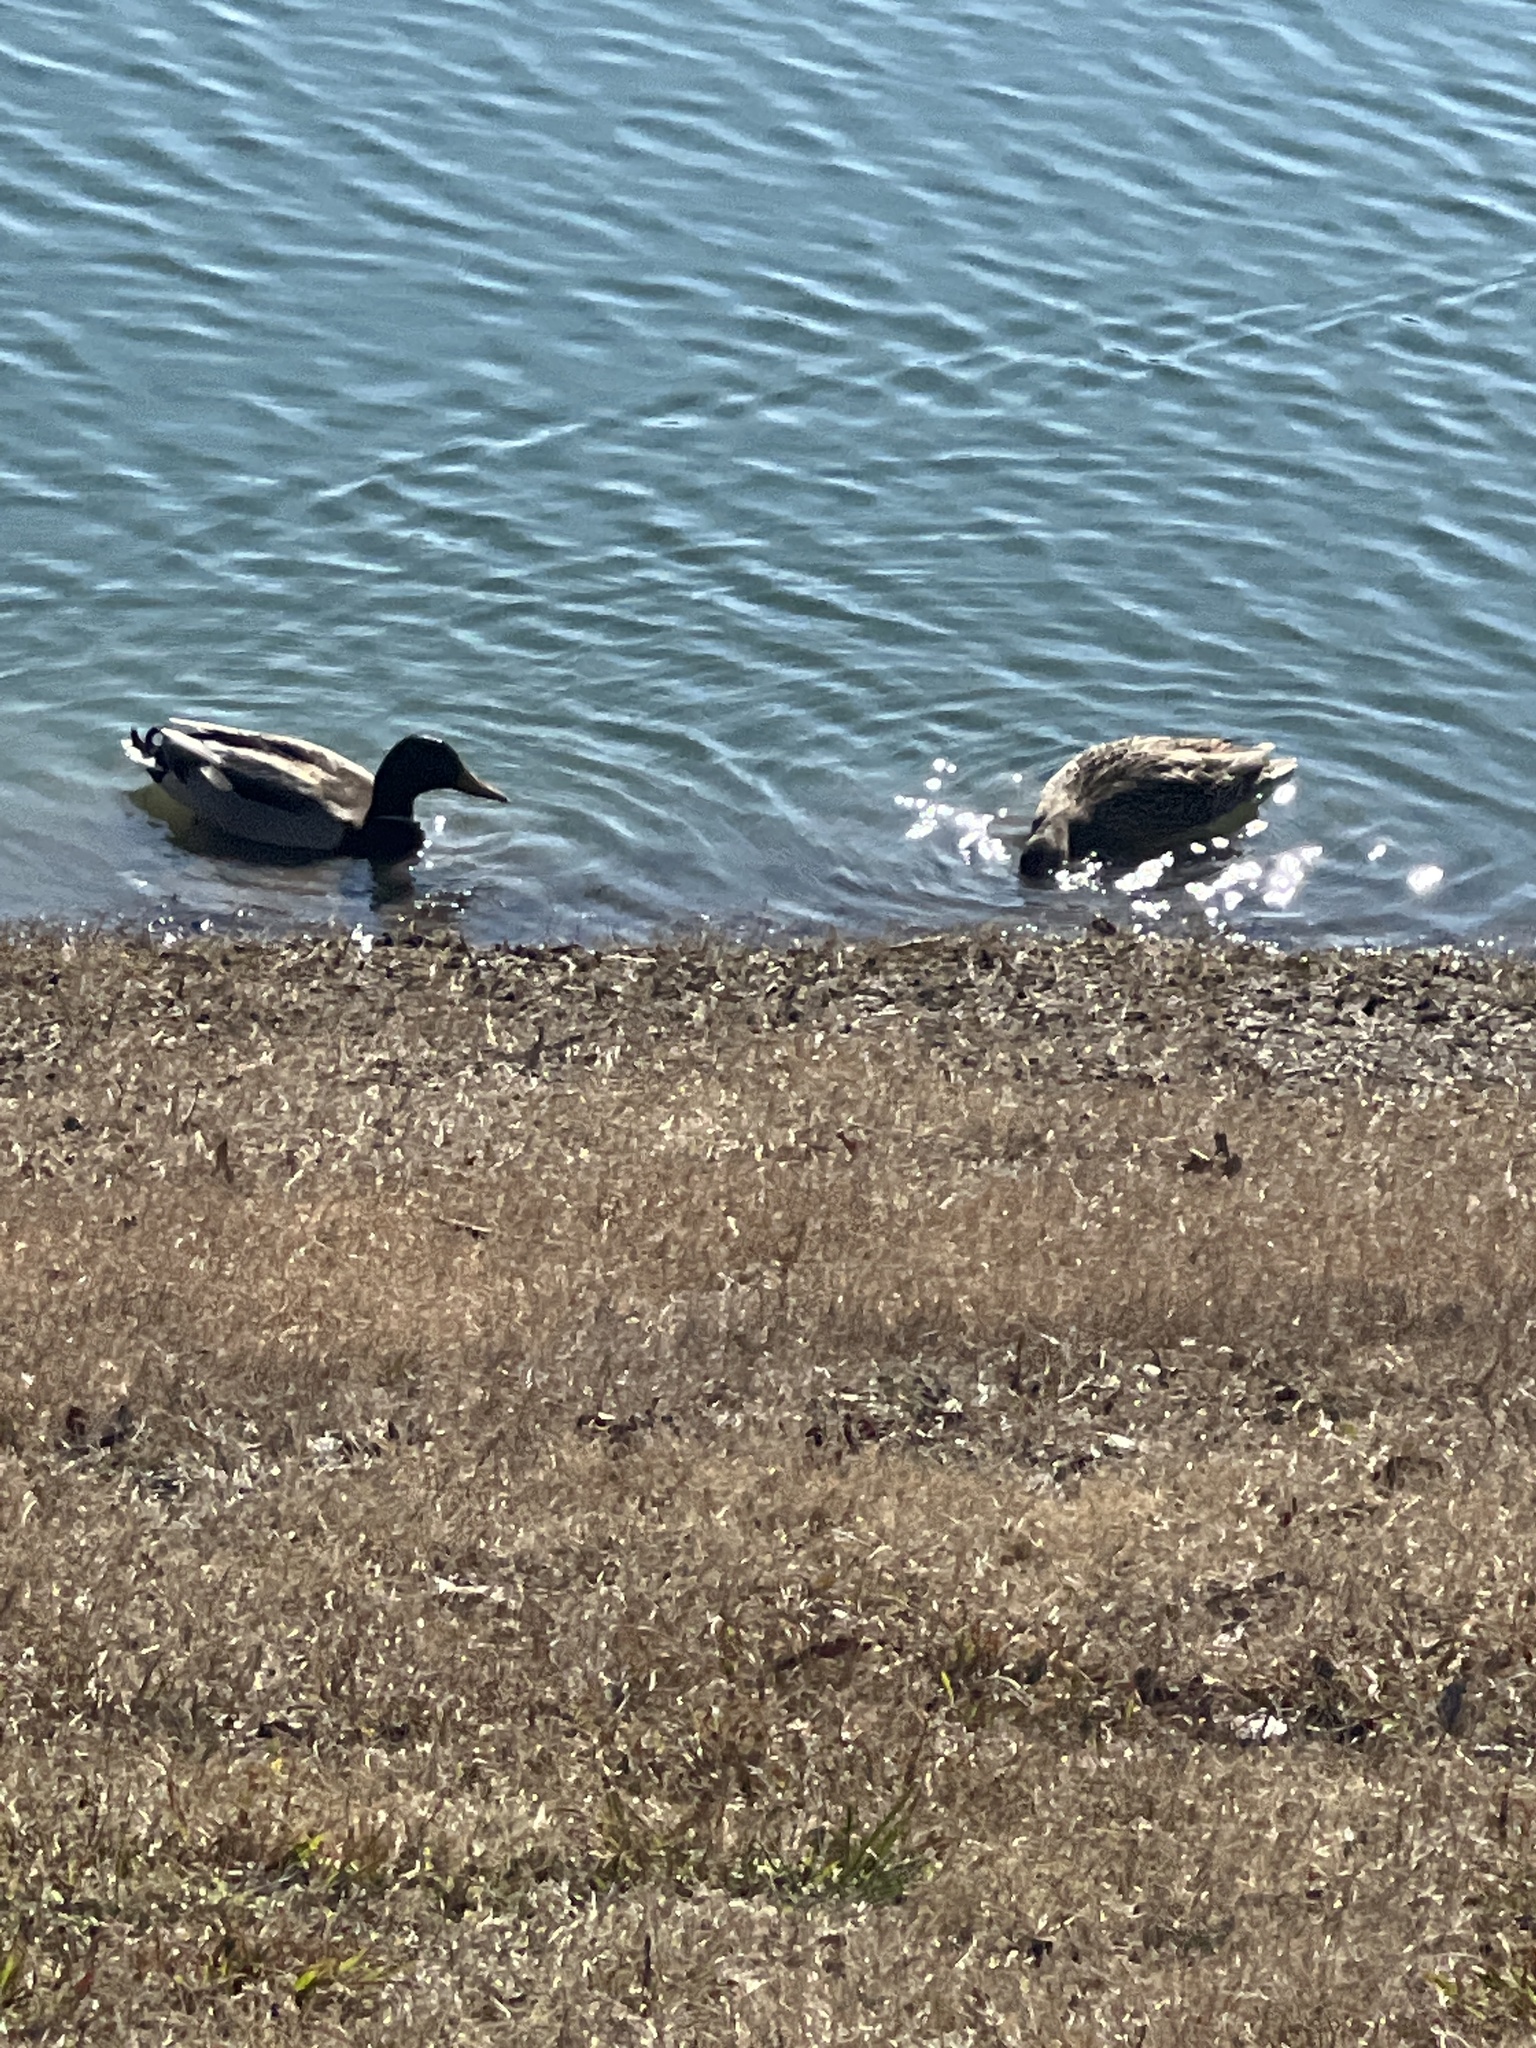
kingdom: Animalia
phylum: Chordata
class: Aves
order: Anseriformes
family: Anatidae
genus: Anas
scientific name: Anas platyrhynchos
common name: Mallard
